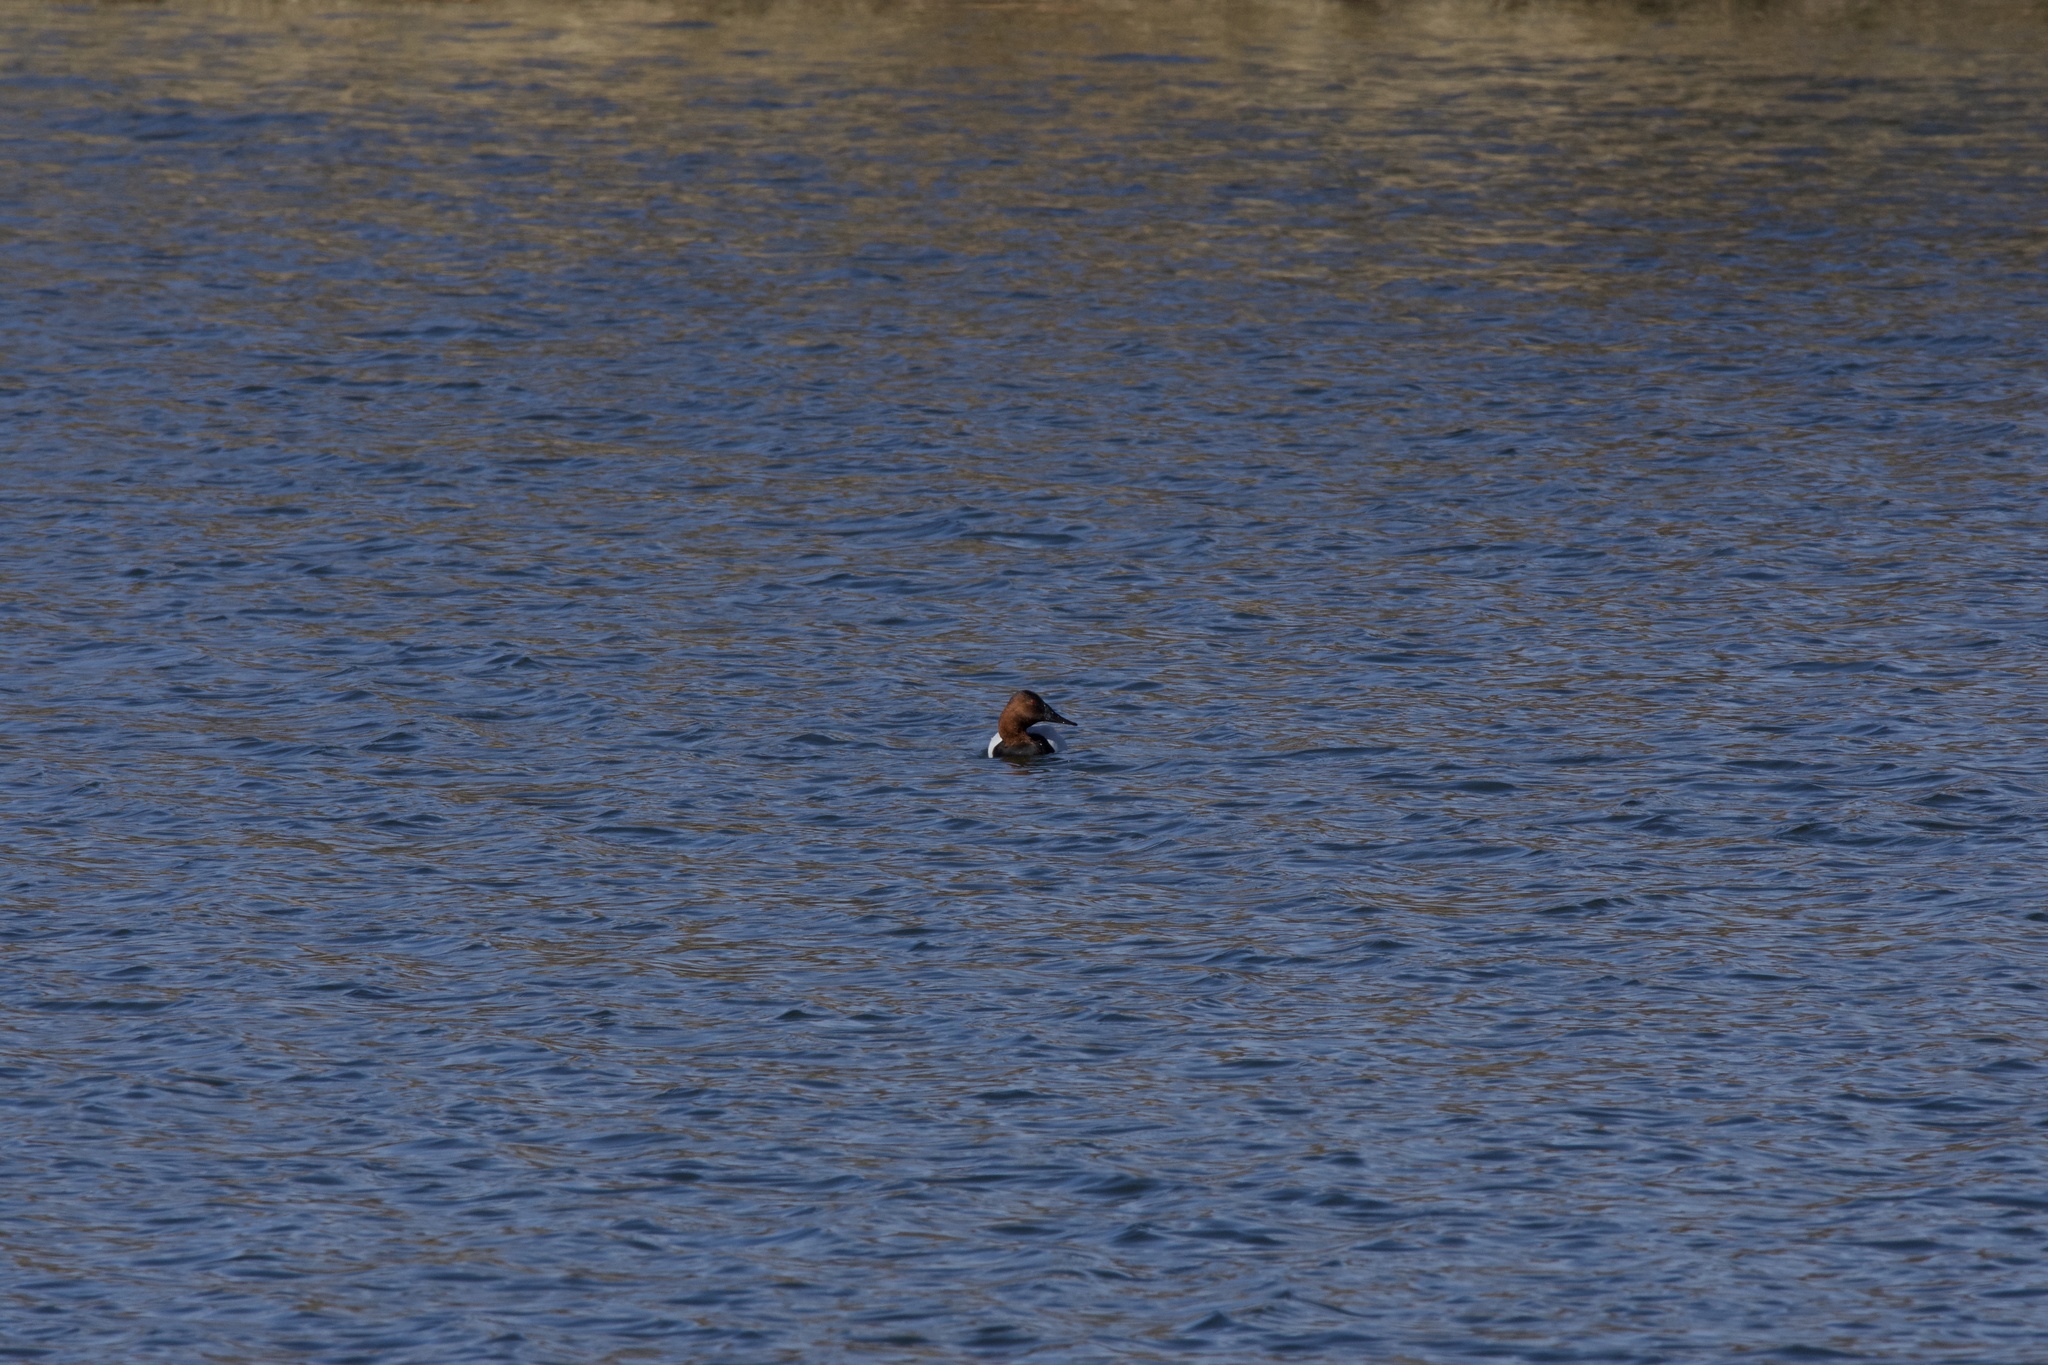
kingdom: Animalia
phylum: Chordata
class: Aves
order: Anseriformes
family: Anatidae
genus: Aythya
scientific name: Aythya valisineria
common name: Canvasback
